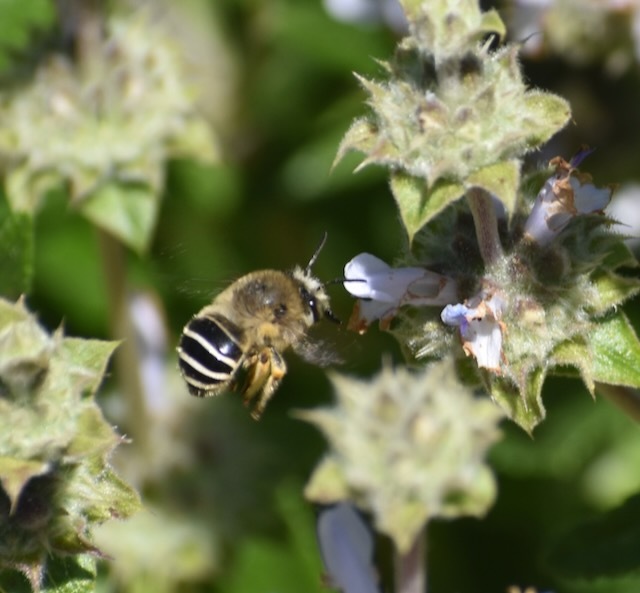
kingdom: Animalia
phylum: Arthropoda
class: Insecta
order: Hymenoptera
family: Apidae
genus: Anthophora
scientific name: Anthophora californica
